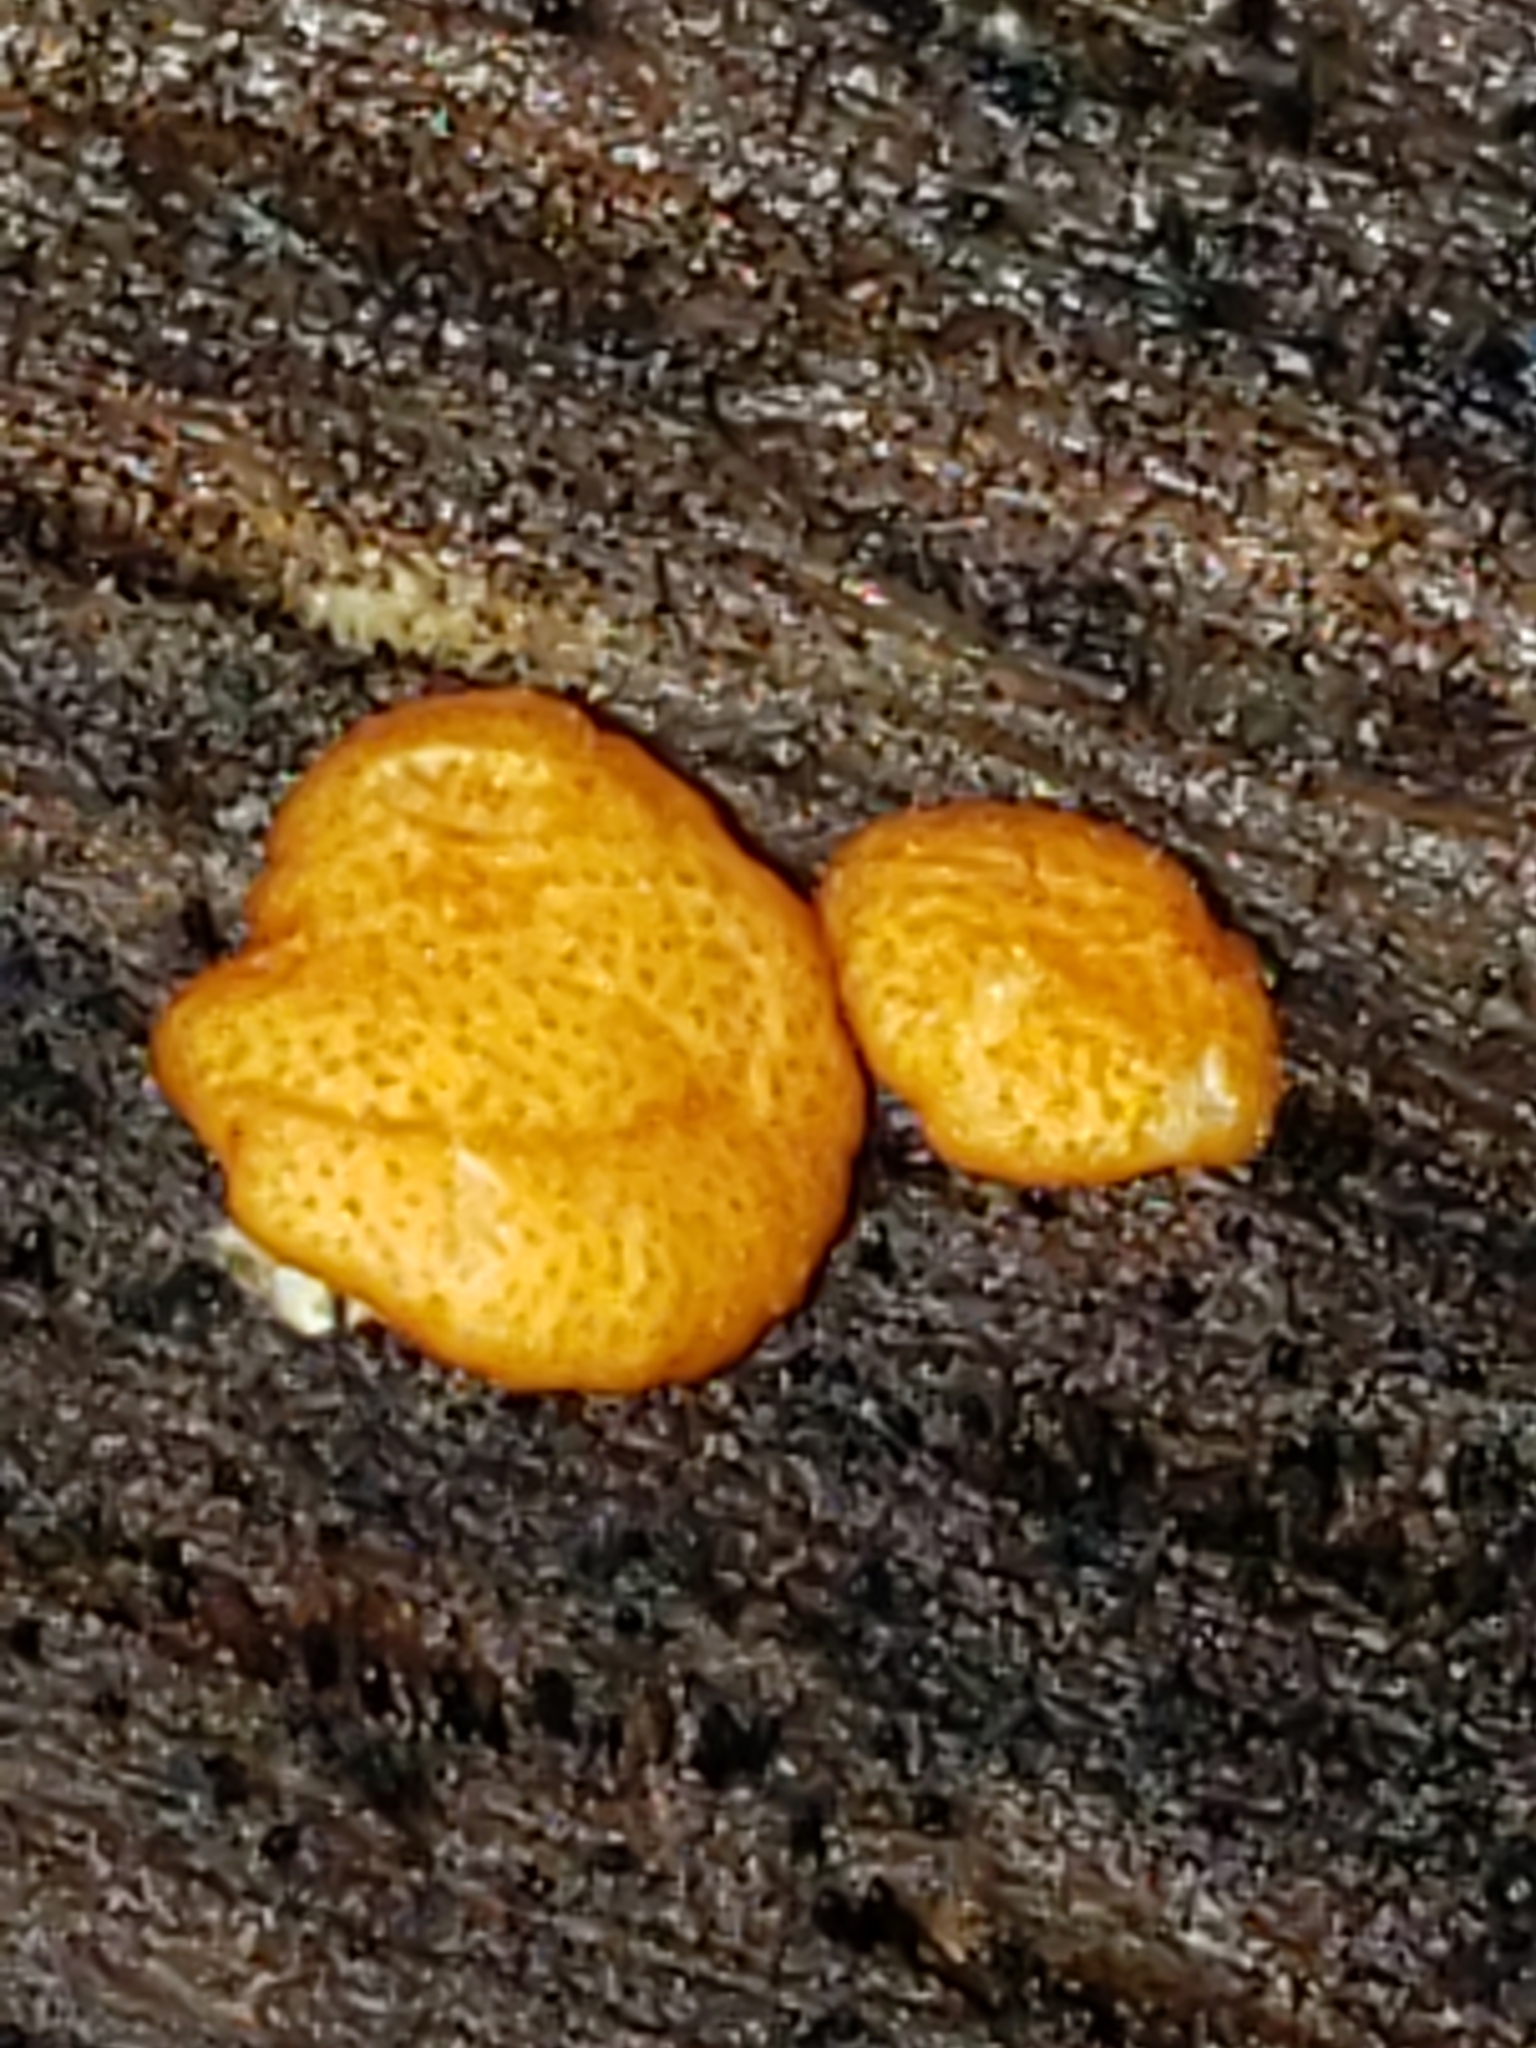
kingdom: Fungi
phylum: Ascomycota
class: Sordariomycetes
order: Hypocreales
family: Hypocreaceae
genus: Trichoderma
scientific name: Trichoderma viride
